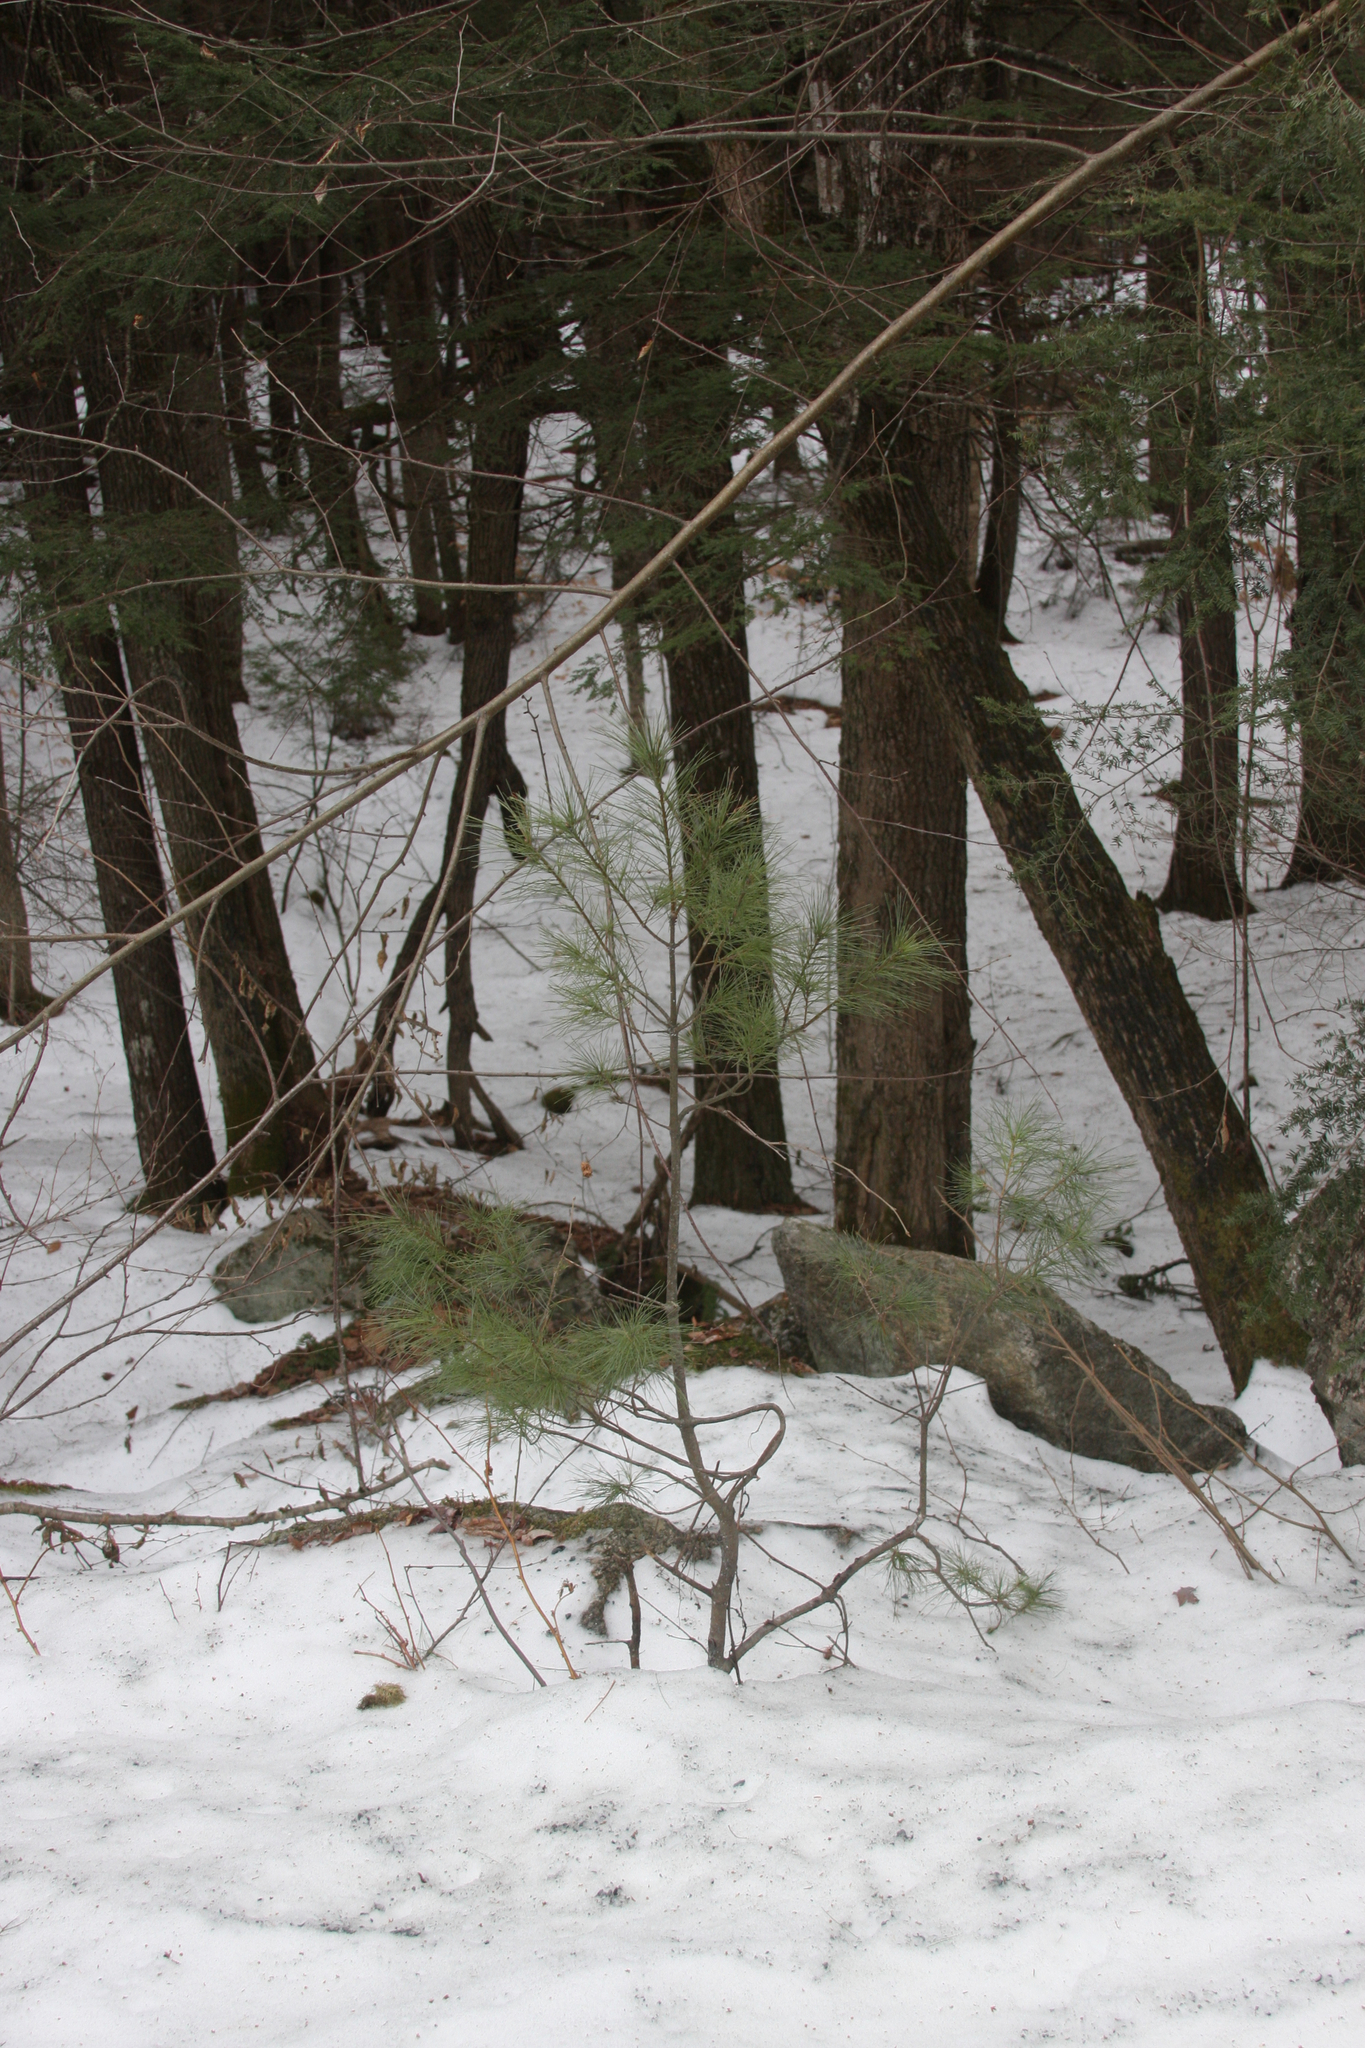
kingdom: Plantae
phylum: Tracheophyta
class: Pinopsida
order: Pinales
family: Pinaceae
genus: Pinus
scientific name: Pinus strobus
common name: Weymouth pine
